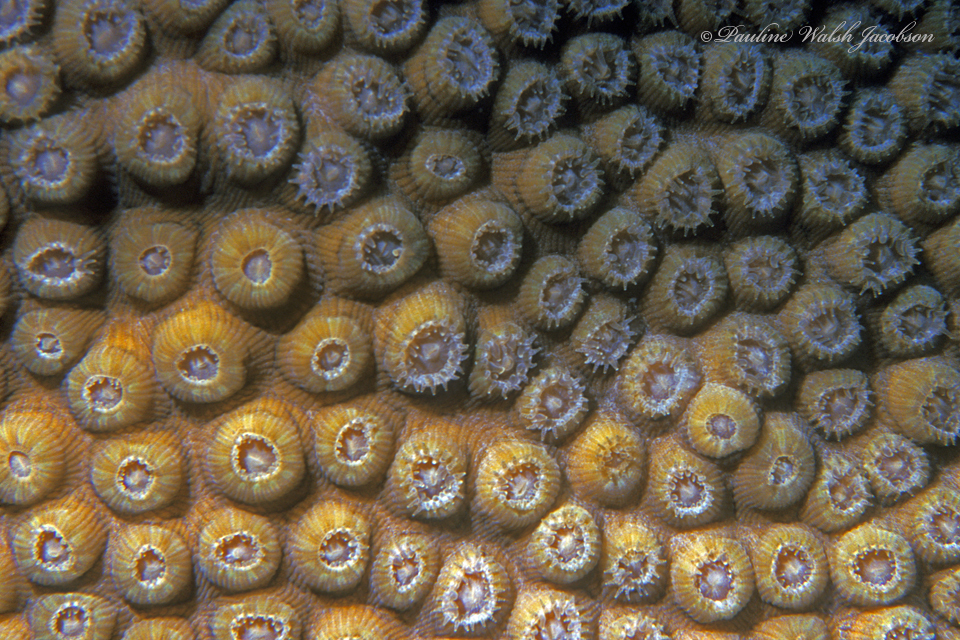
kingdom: Animalia
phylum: Cnidaria
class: Anthozoa
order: Scleractinia
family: Montastraeidae
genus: Montastraea
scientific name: Montastraea cavernosa
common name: Great star coral
